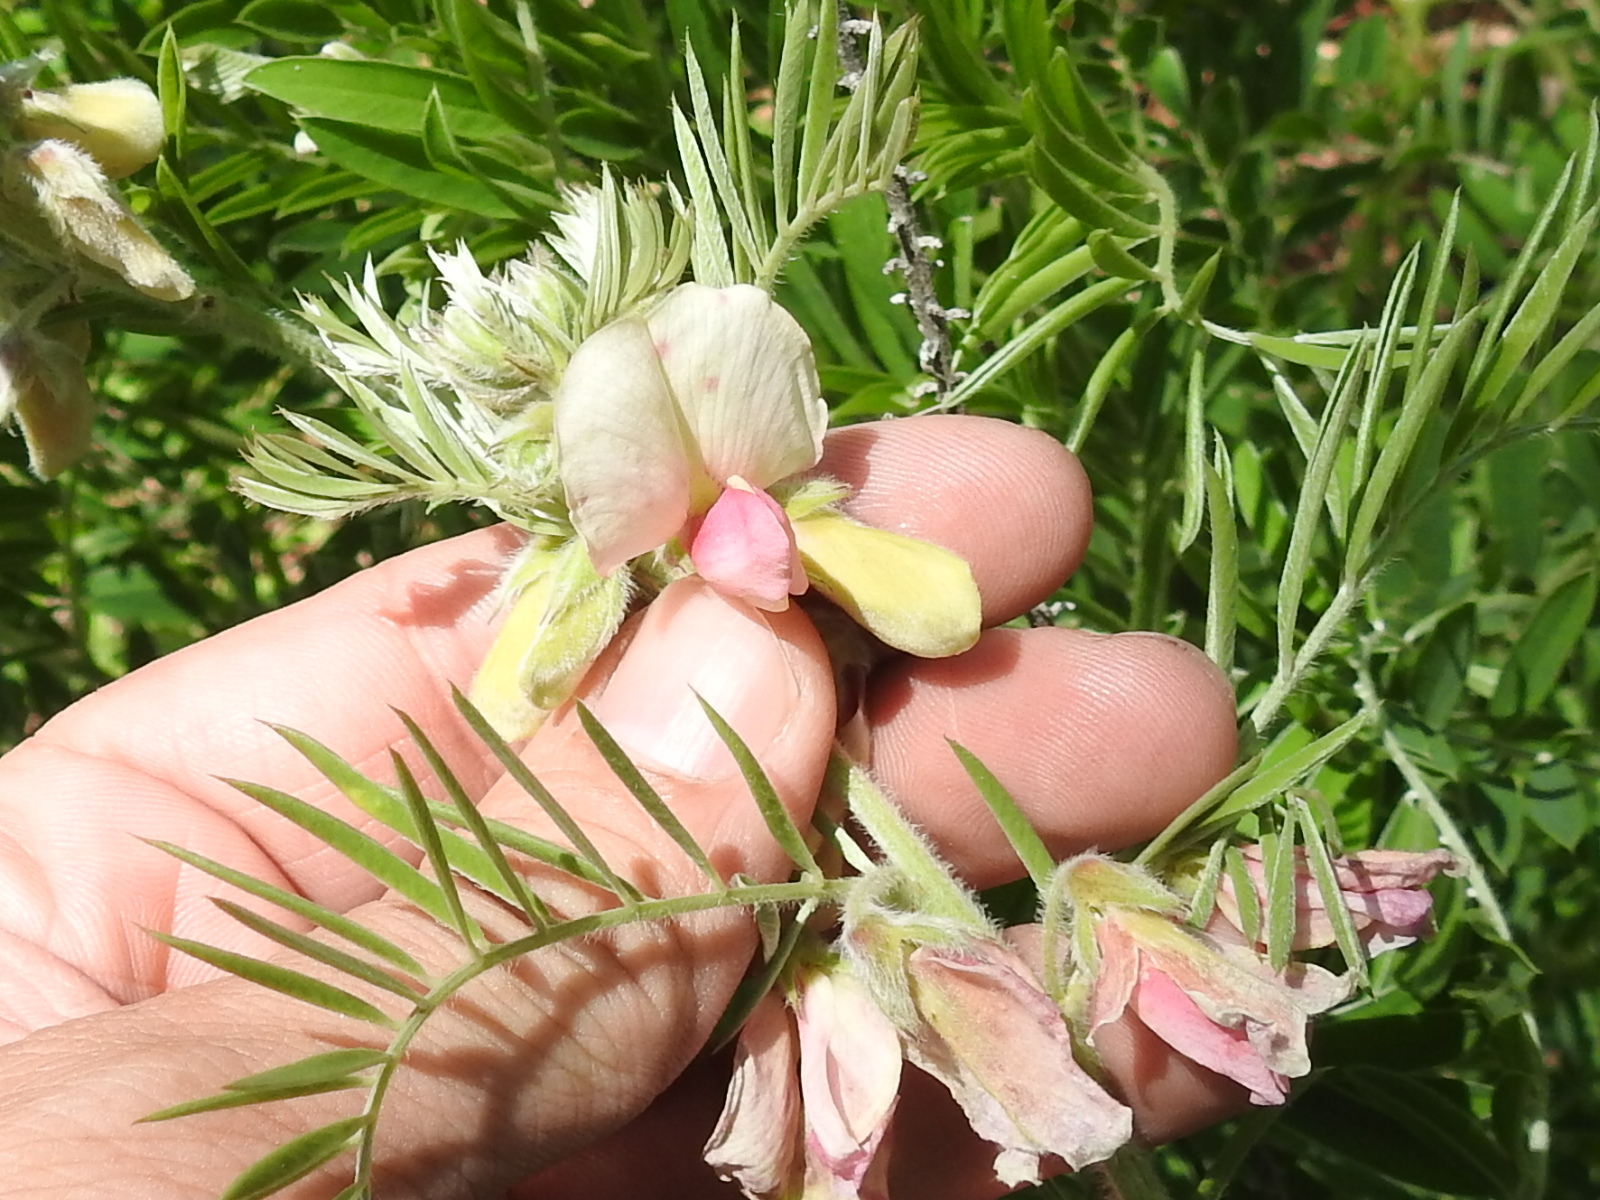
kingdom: Plantae
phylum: Tracheophyta
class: Magnoliopsida
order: Fabales
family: Fabaceae
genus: Tephrosia
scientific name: Tephrosia virginiana
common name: Rabbit-pea
